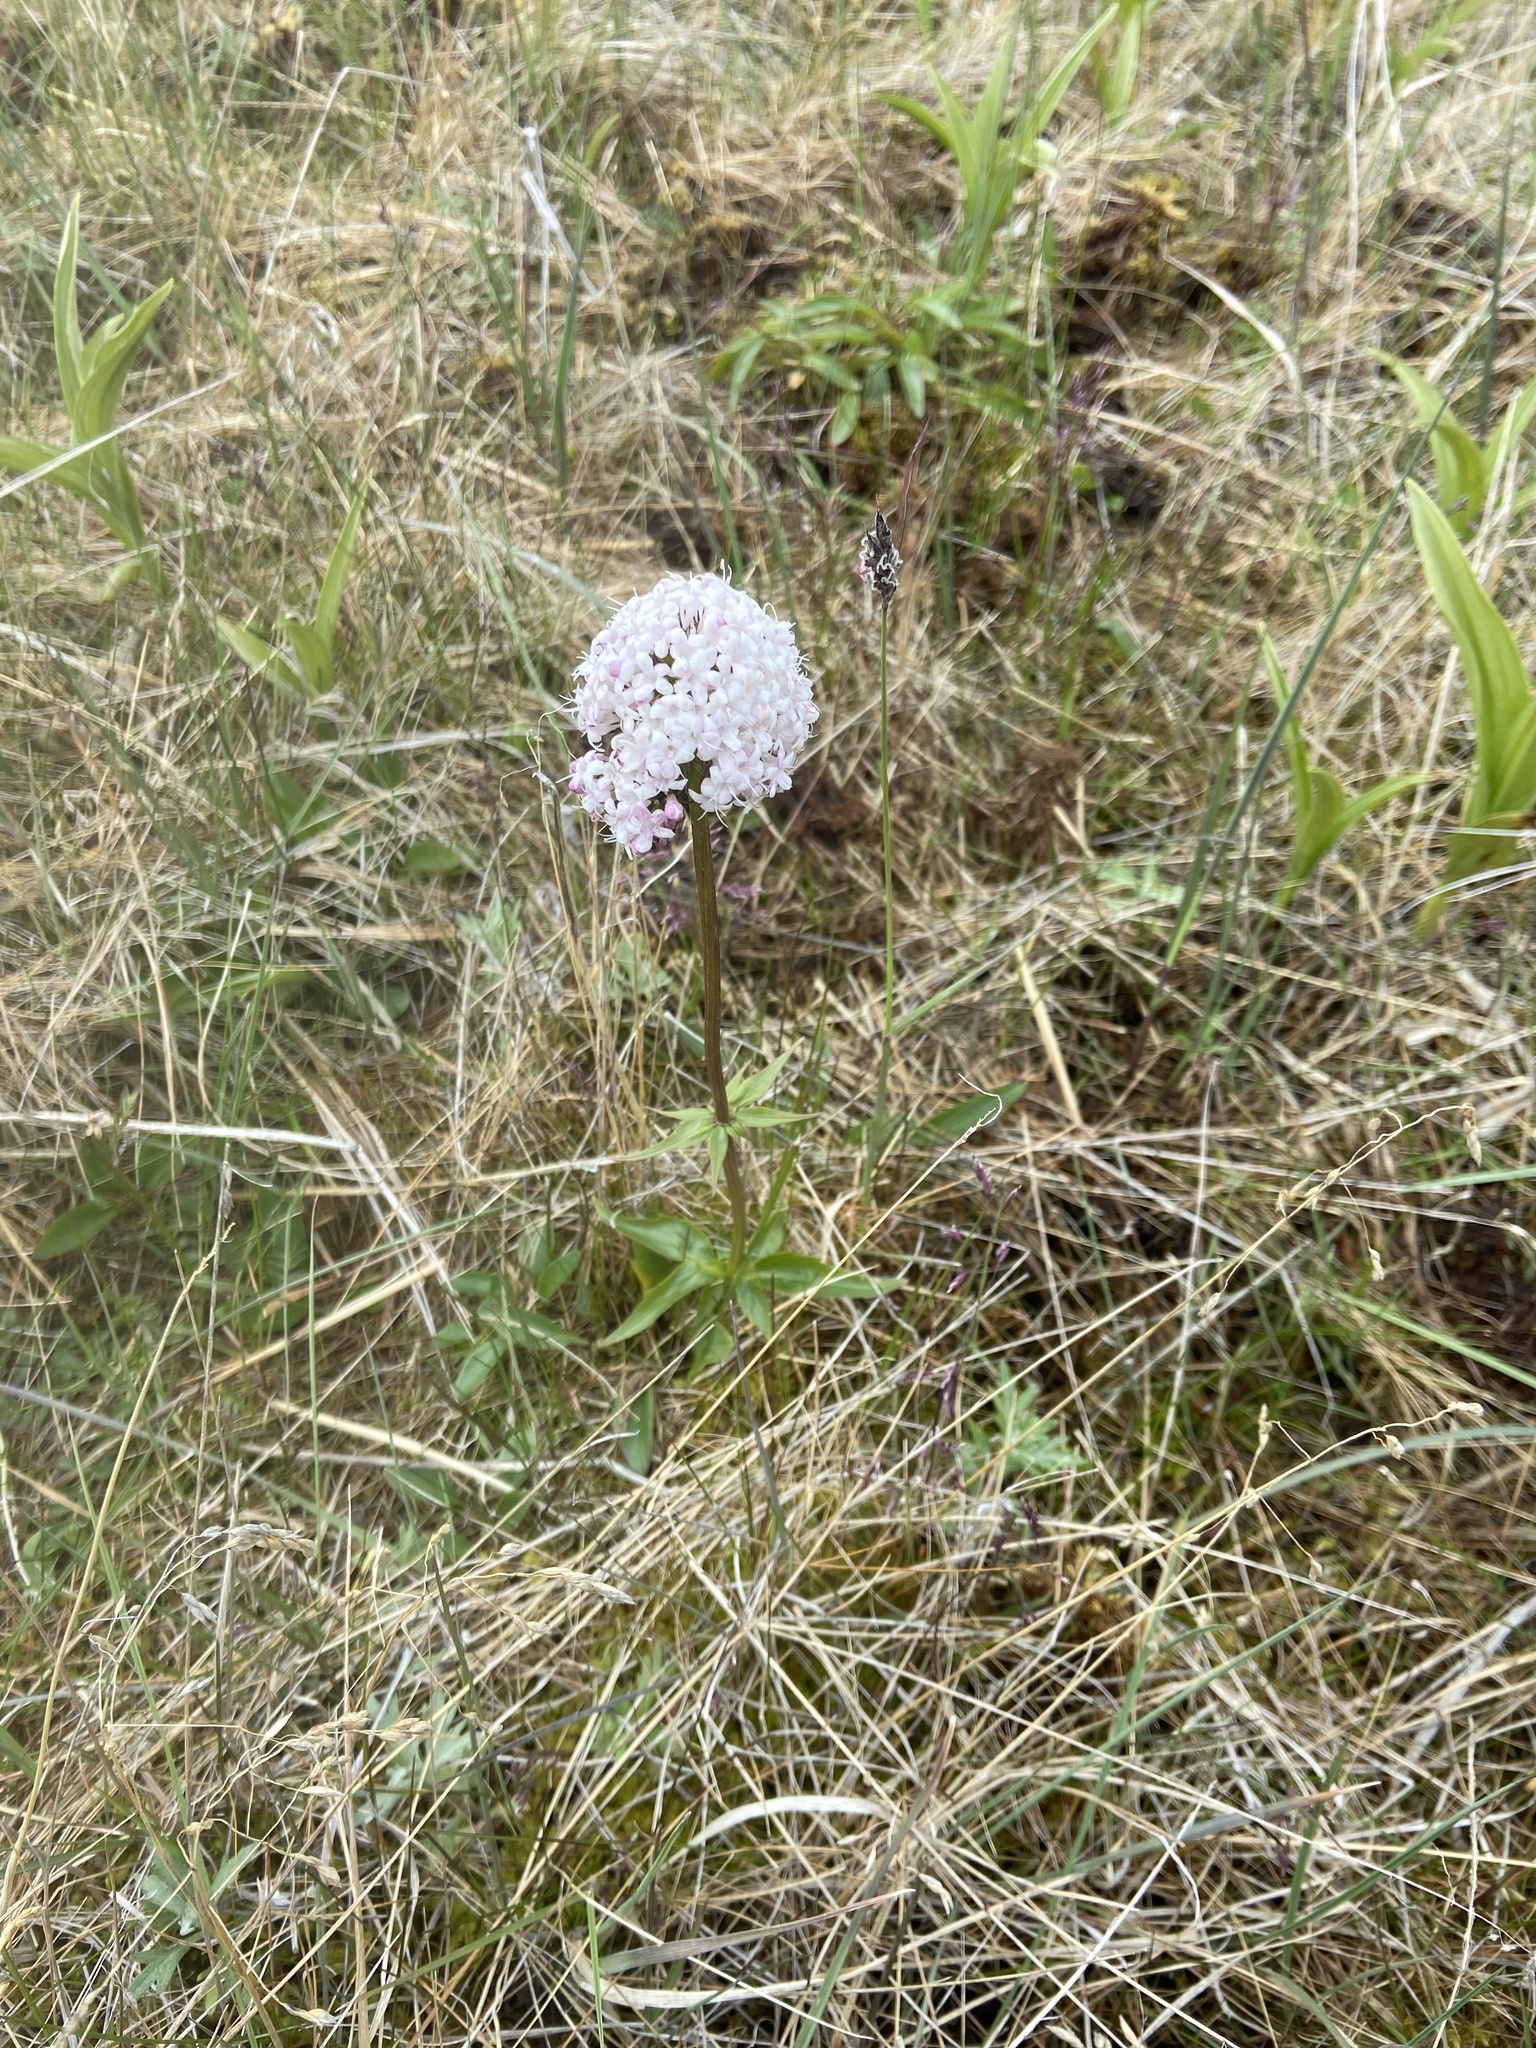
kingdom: Plantae
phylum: Tracheophyta
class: Magnoliopsida
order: Dipsacales
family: Caprifoliaceae
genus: Valeriana
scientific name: Valeriana capitata
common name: Capitate valerian
